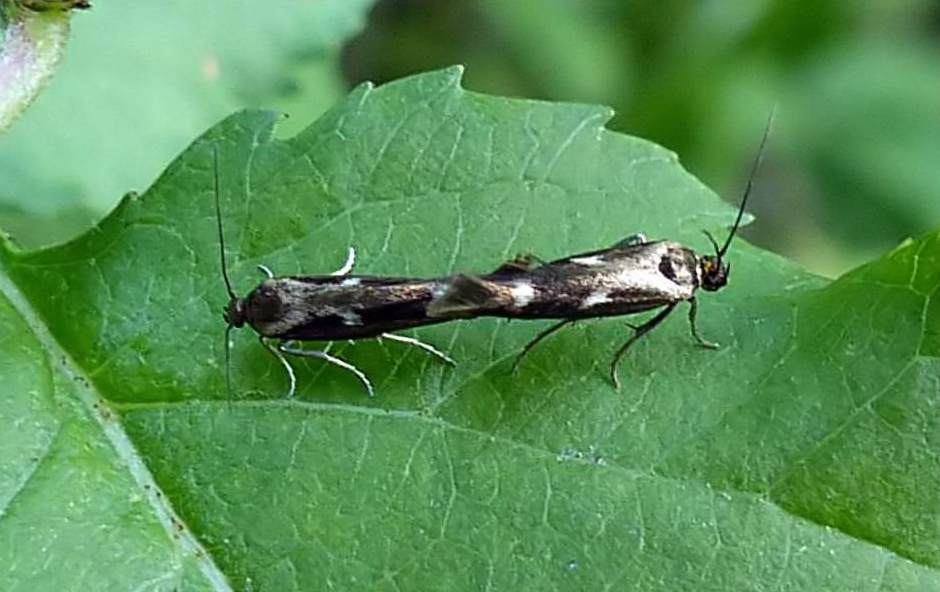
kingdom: Animalia
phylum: Arthropoda
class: Insecta
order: Lepidoptera
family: Scythrididae
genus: Landryia
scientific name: Landryia impositella
